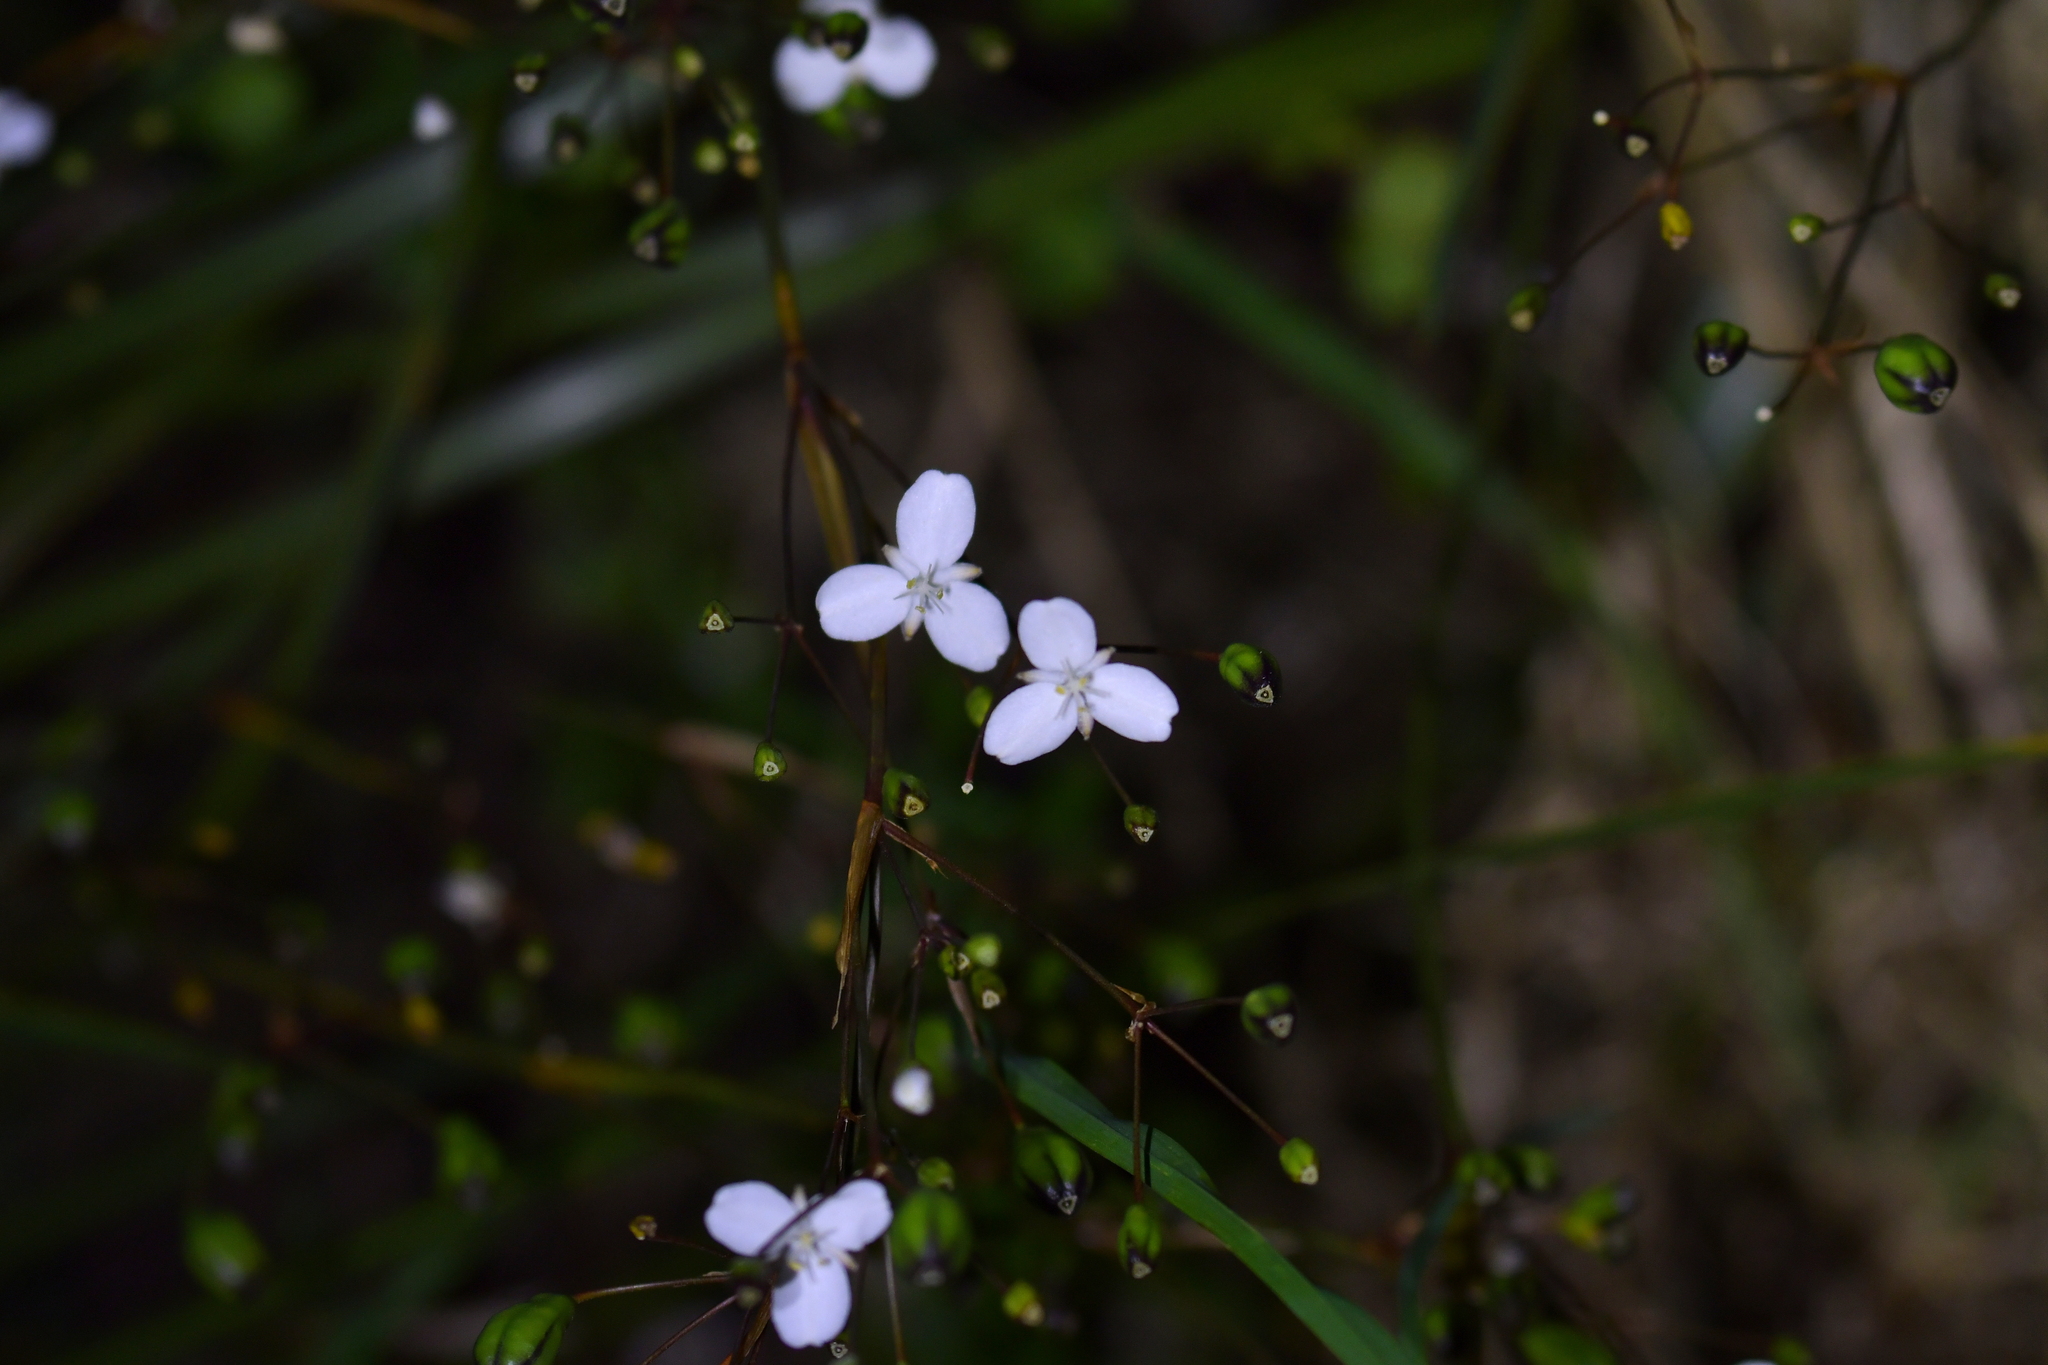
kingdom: Plantae
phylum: Tracheophyta
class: Liliopsida
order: Asparagales
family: Iridaceae
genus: Libertia
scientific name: Libertia ixioides
